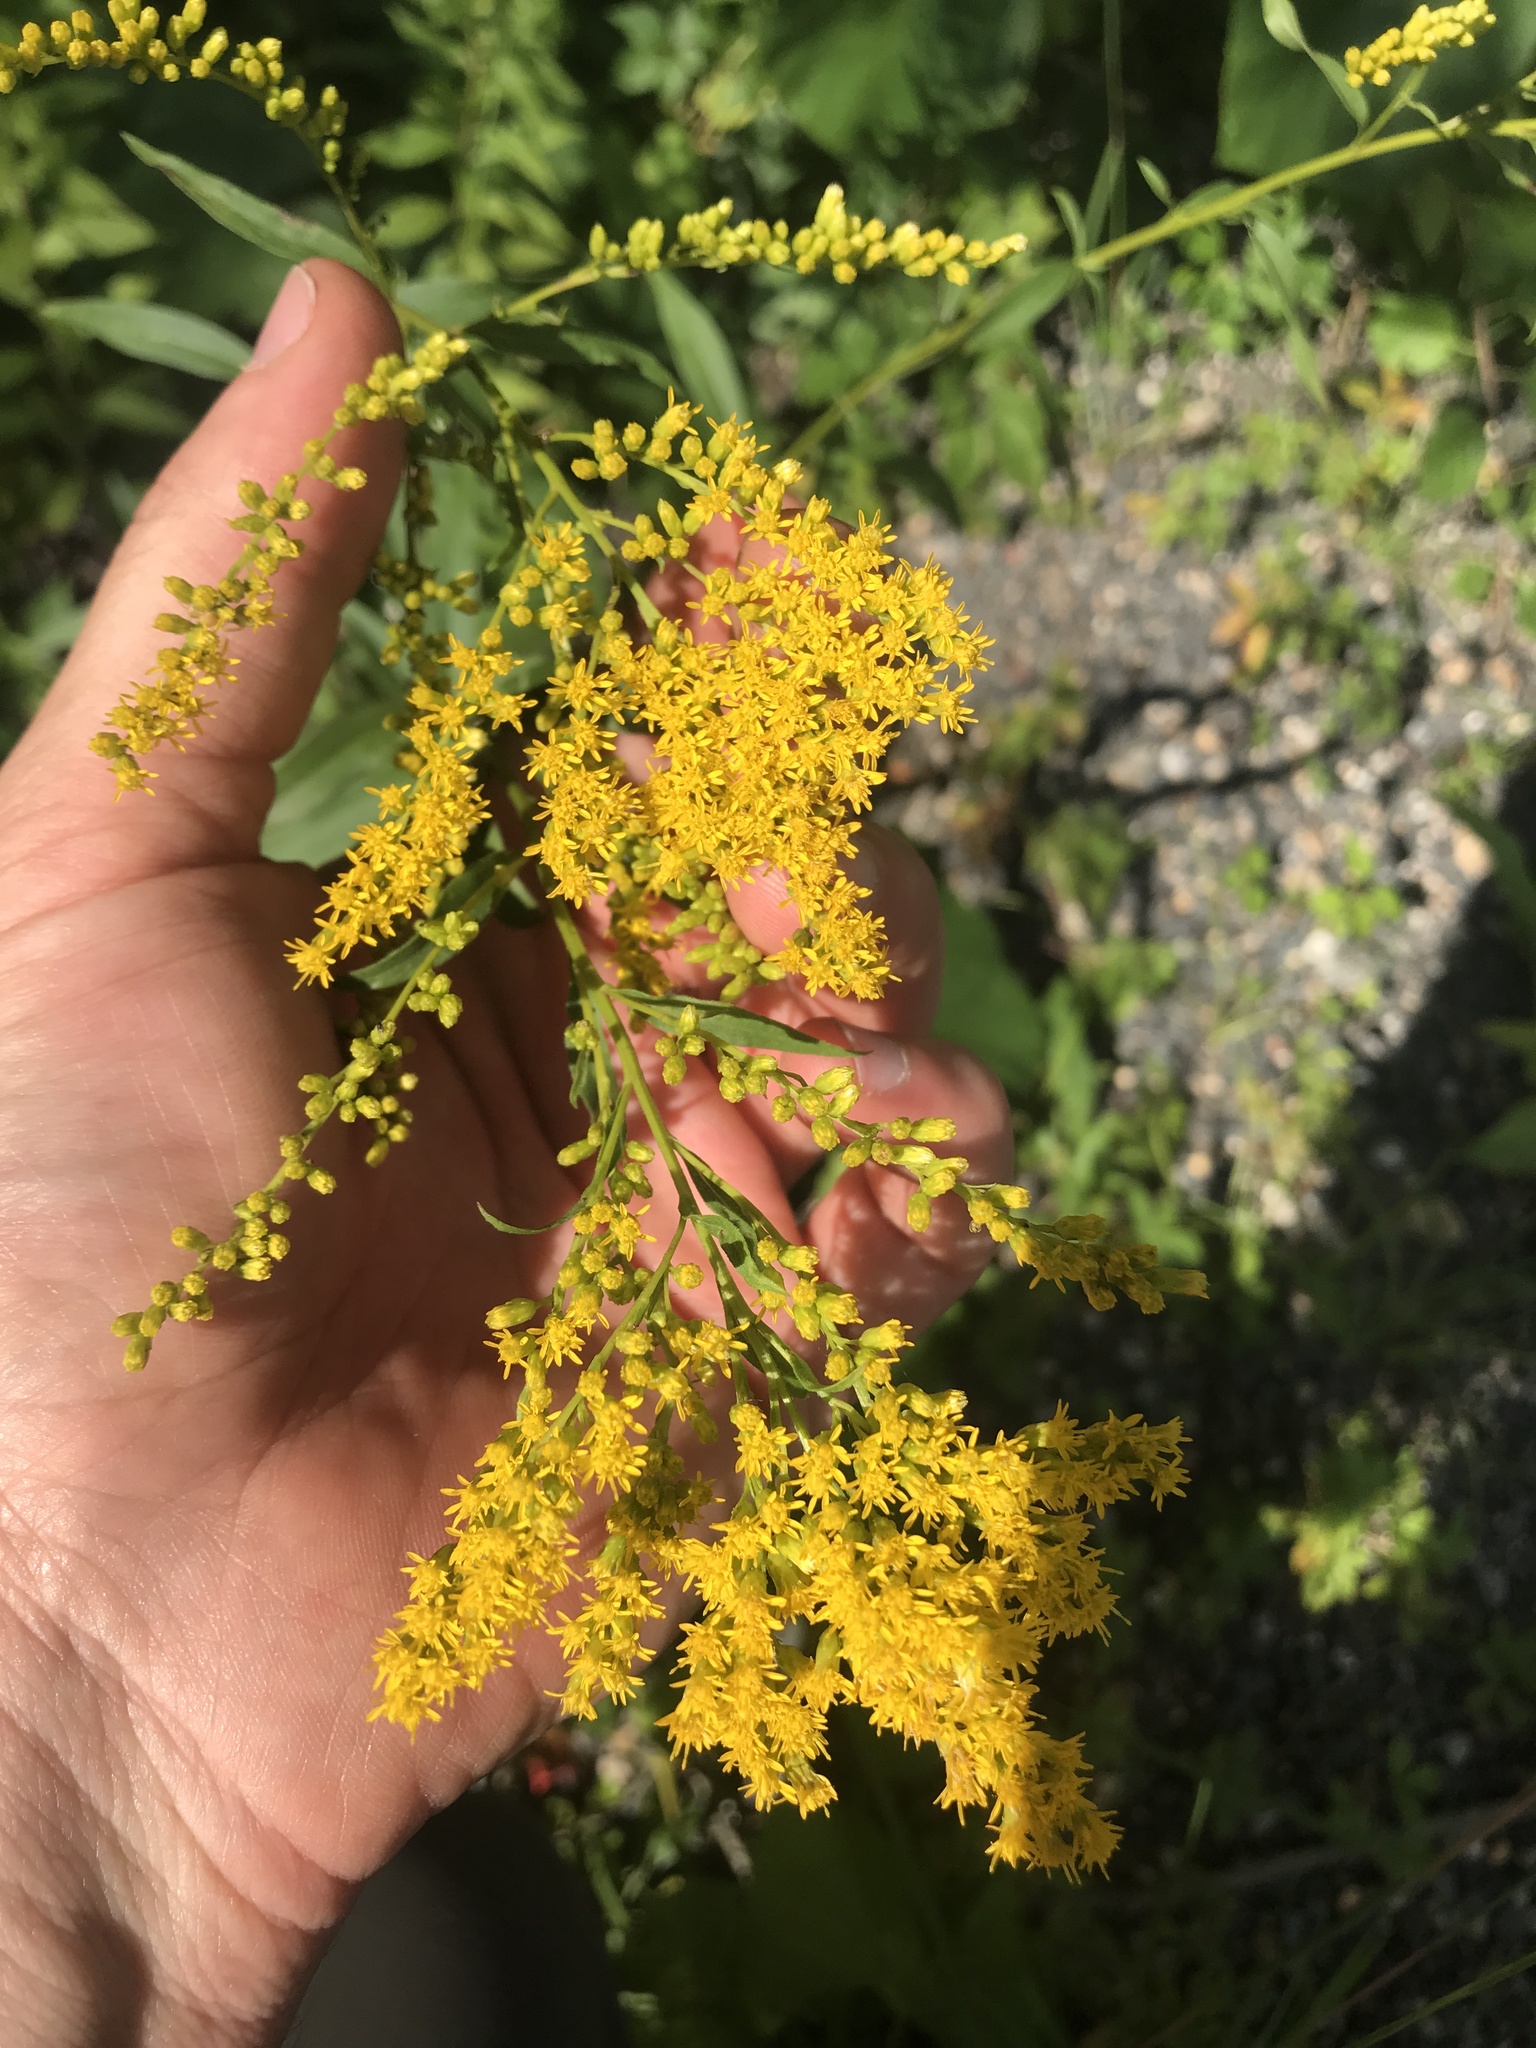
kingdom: Plantae
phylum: Tracheophyta
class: Magnoliopsida
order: Asterales
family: Asteraceae
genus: Solidago
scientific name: Solidago juncea
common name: Early goldenrod
